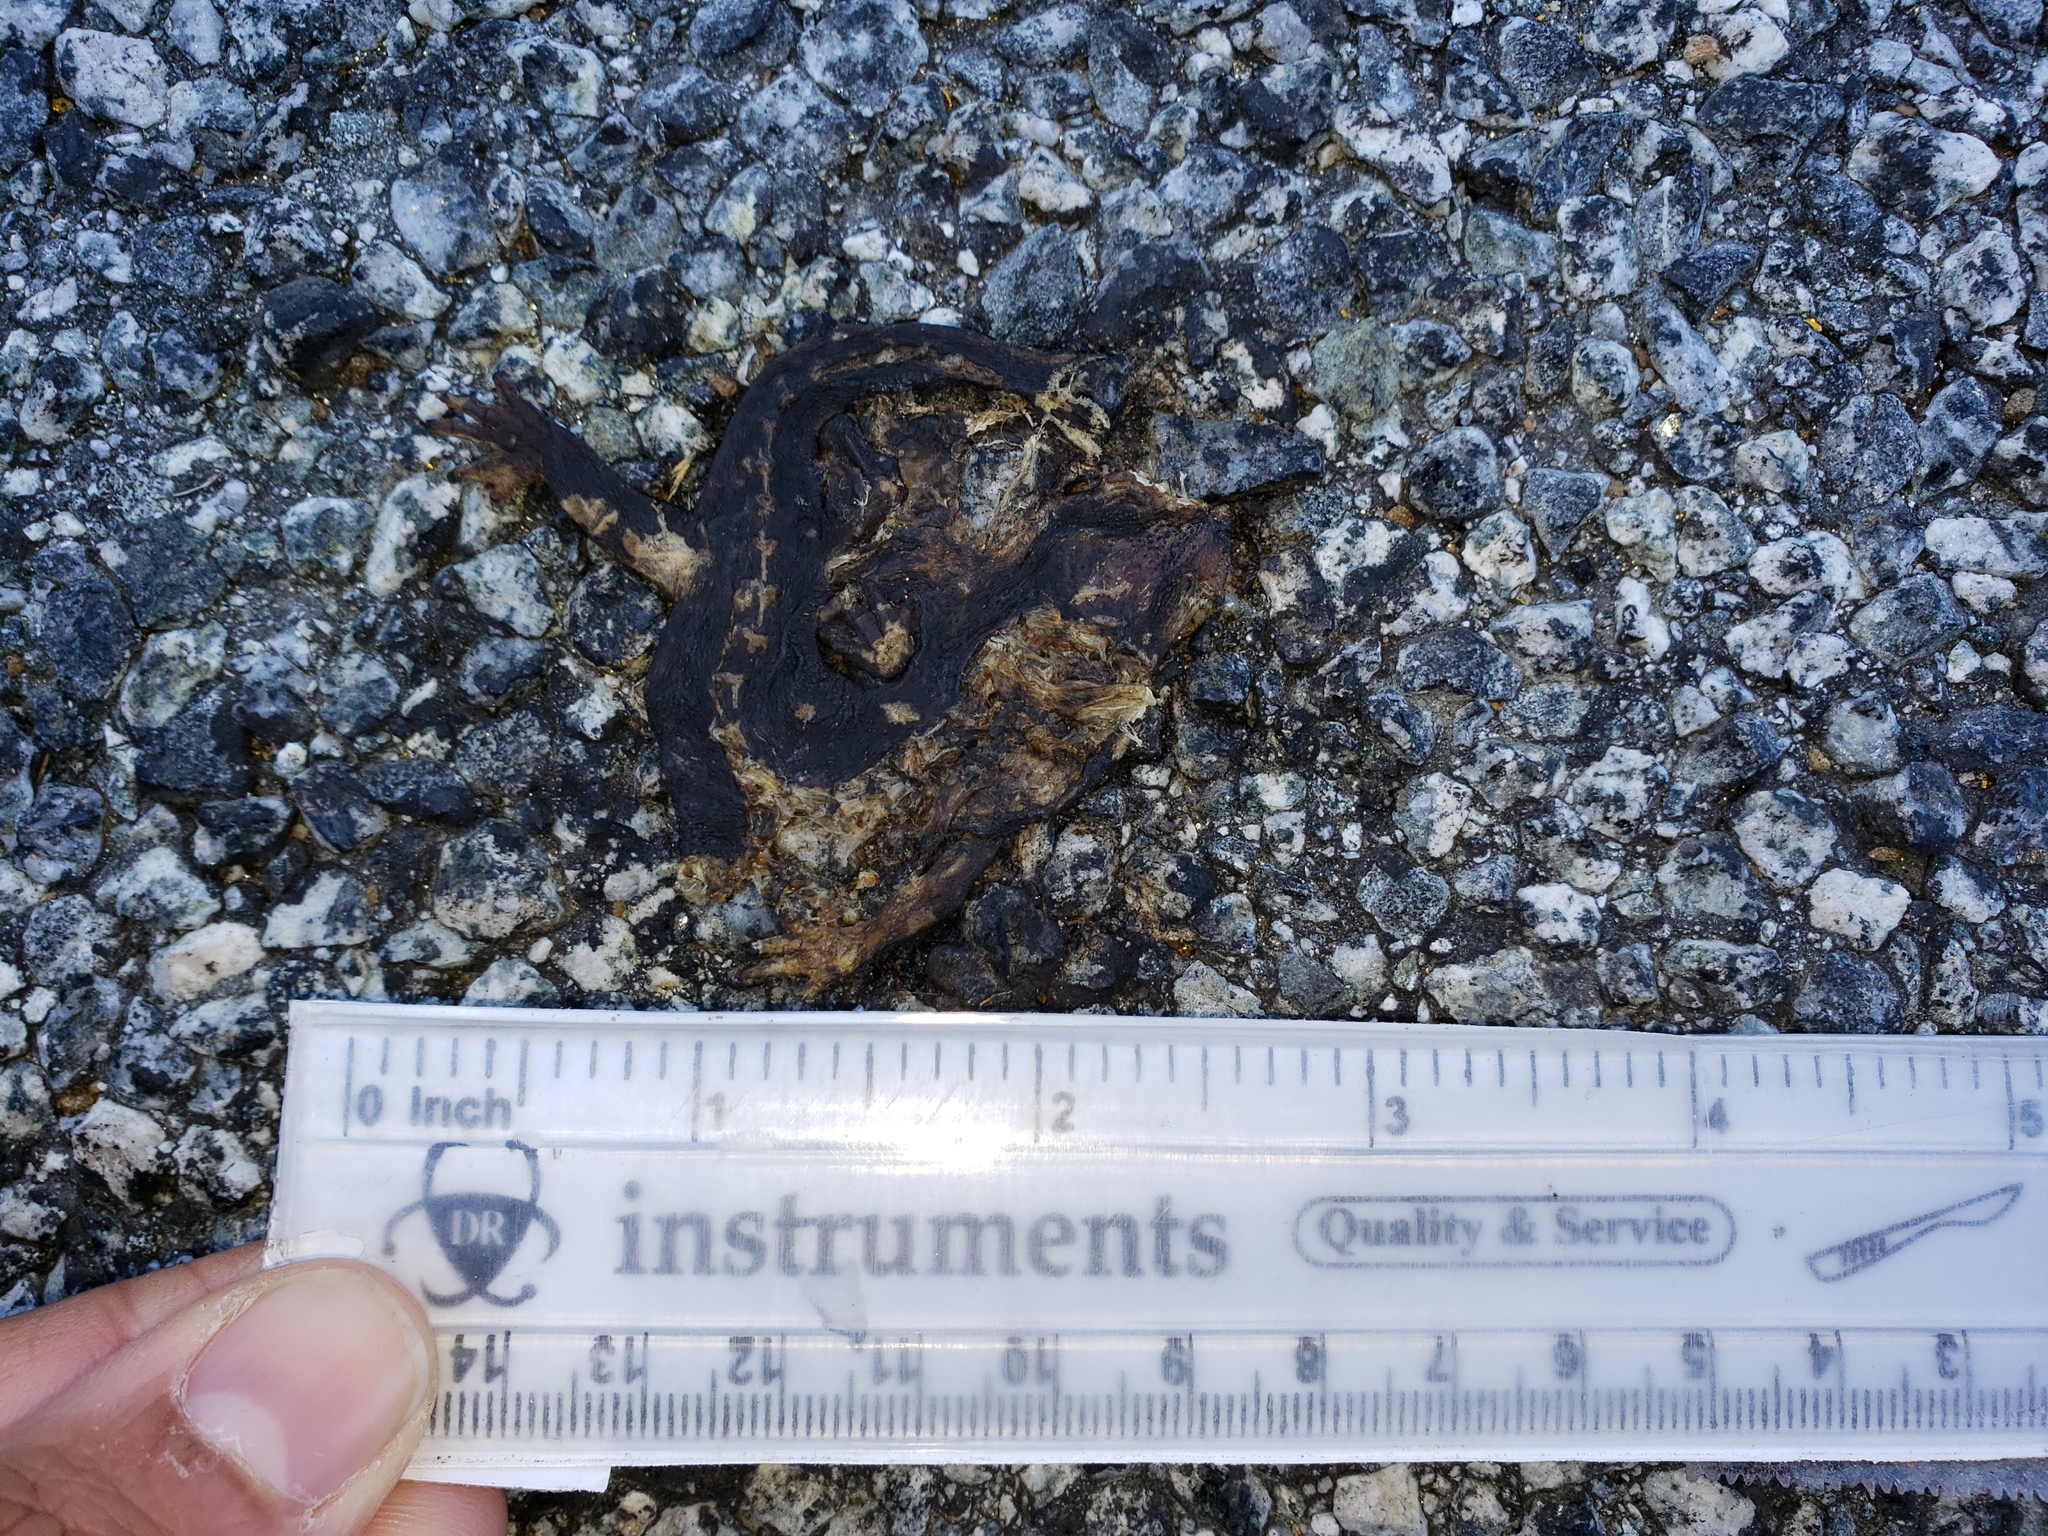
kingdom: Animalia
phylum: Chordata
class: Amphibia
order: Caudata
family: Salamandridae
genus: Taricha
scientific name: Taricha
